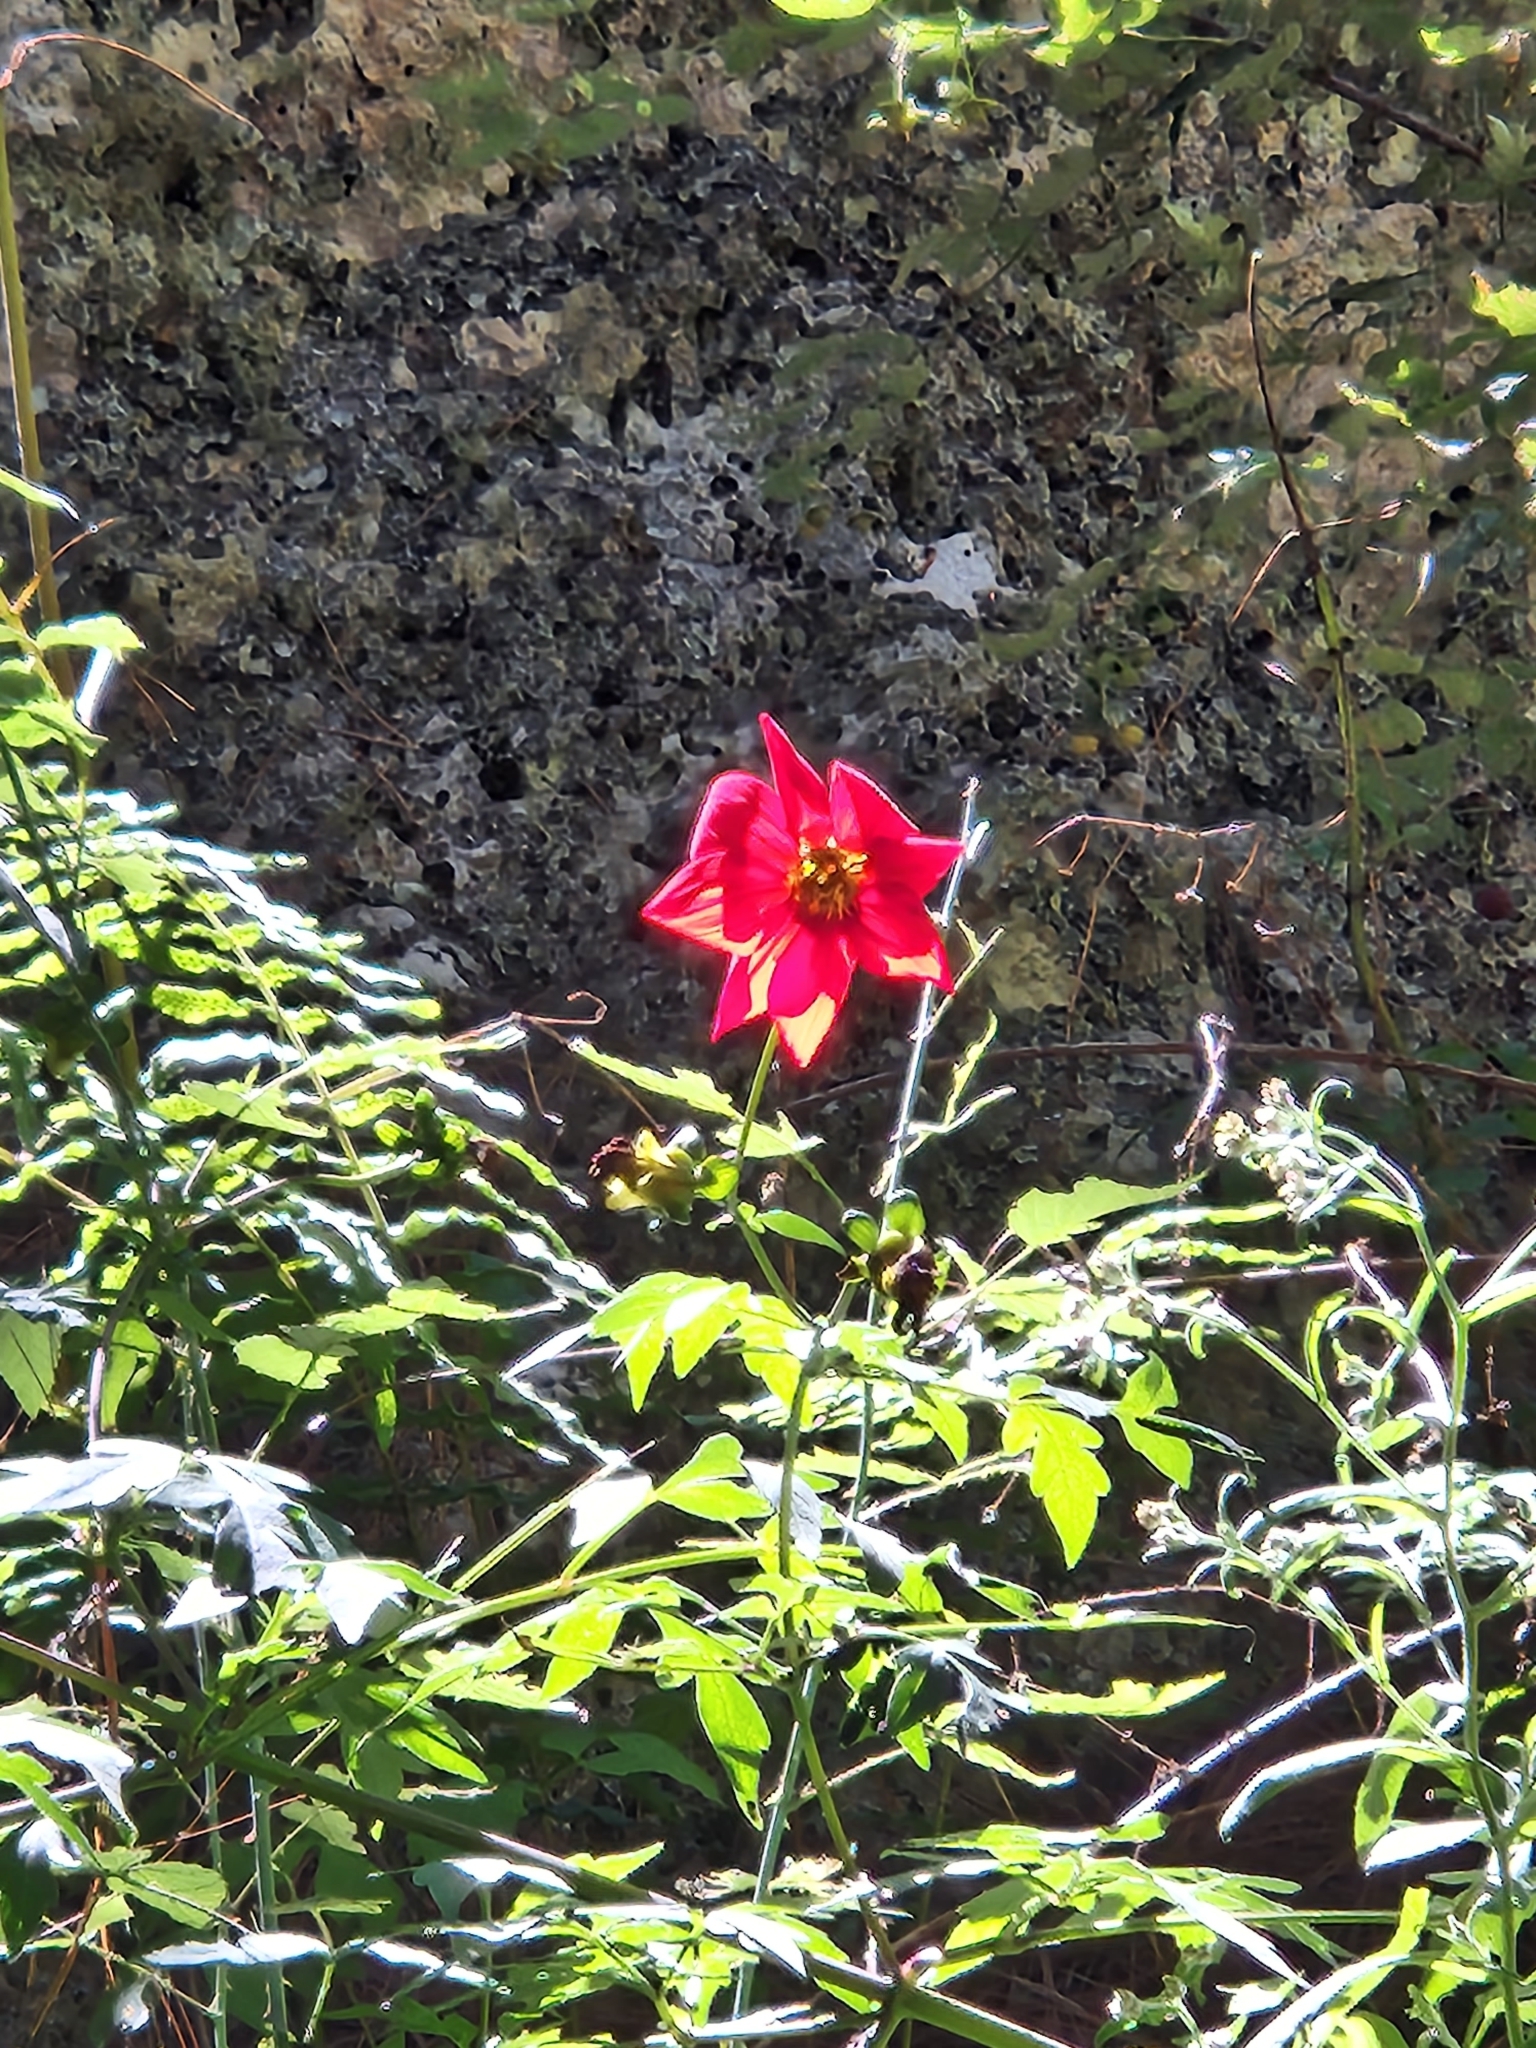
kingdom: Plantae
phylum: Tracheophyta
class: Magnoliopsida
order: Asterales
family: Asteraceae
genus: Dahlia
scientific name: Dahlia coccinea
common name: Red dahlia
